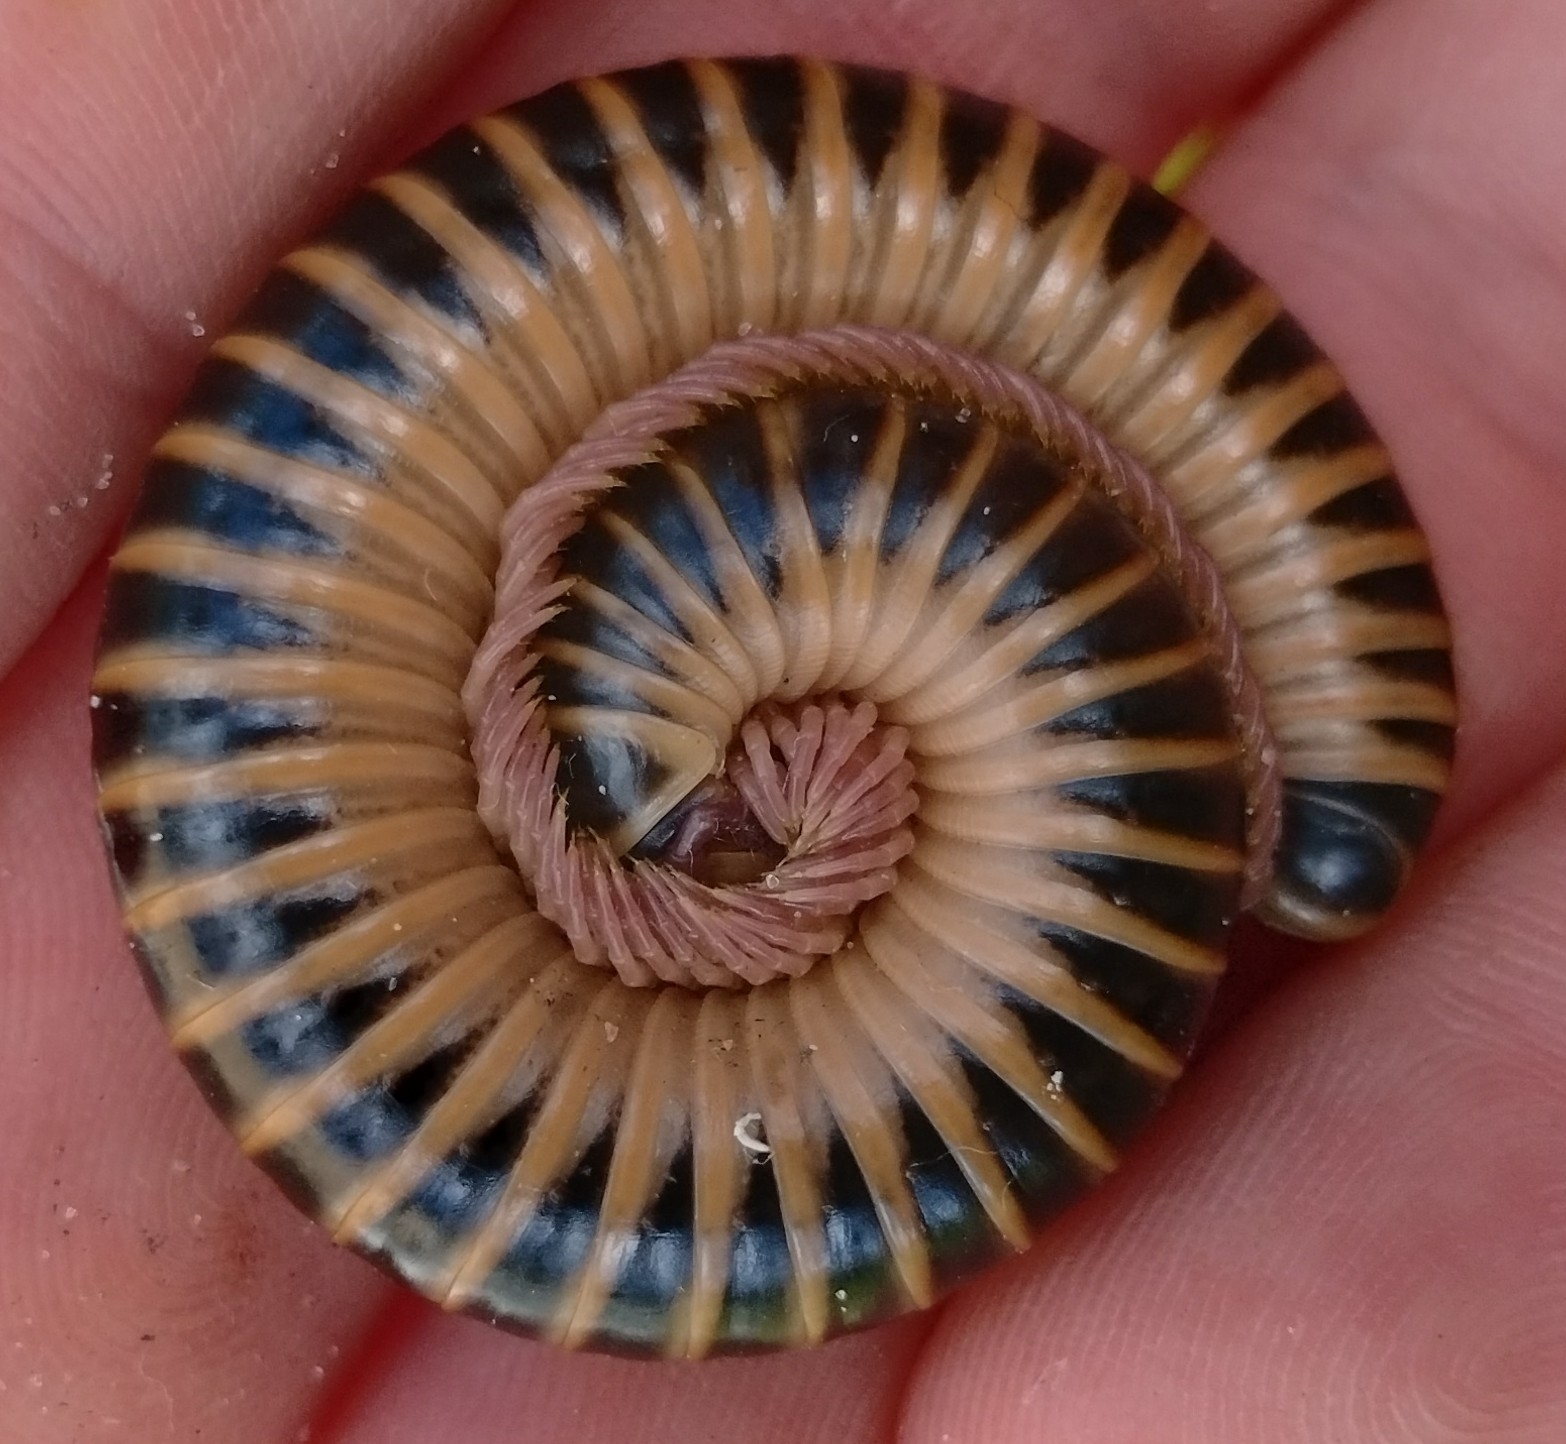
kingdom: Animalia
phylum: Arthropoda
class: Diplopoda
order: Spirobolida
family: Spirobolidae
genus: Chicobolus
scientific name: Chicobolus spinigerus
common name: Florida ivory millipede
